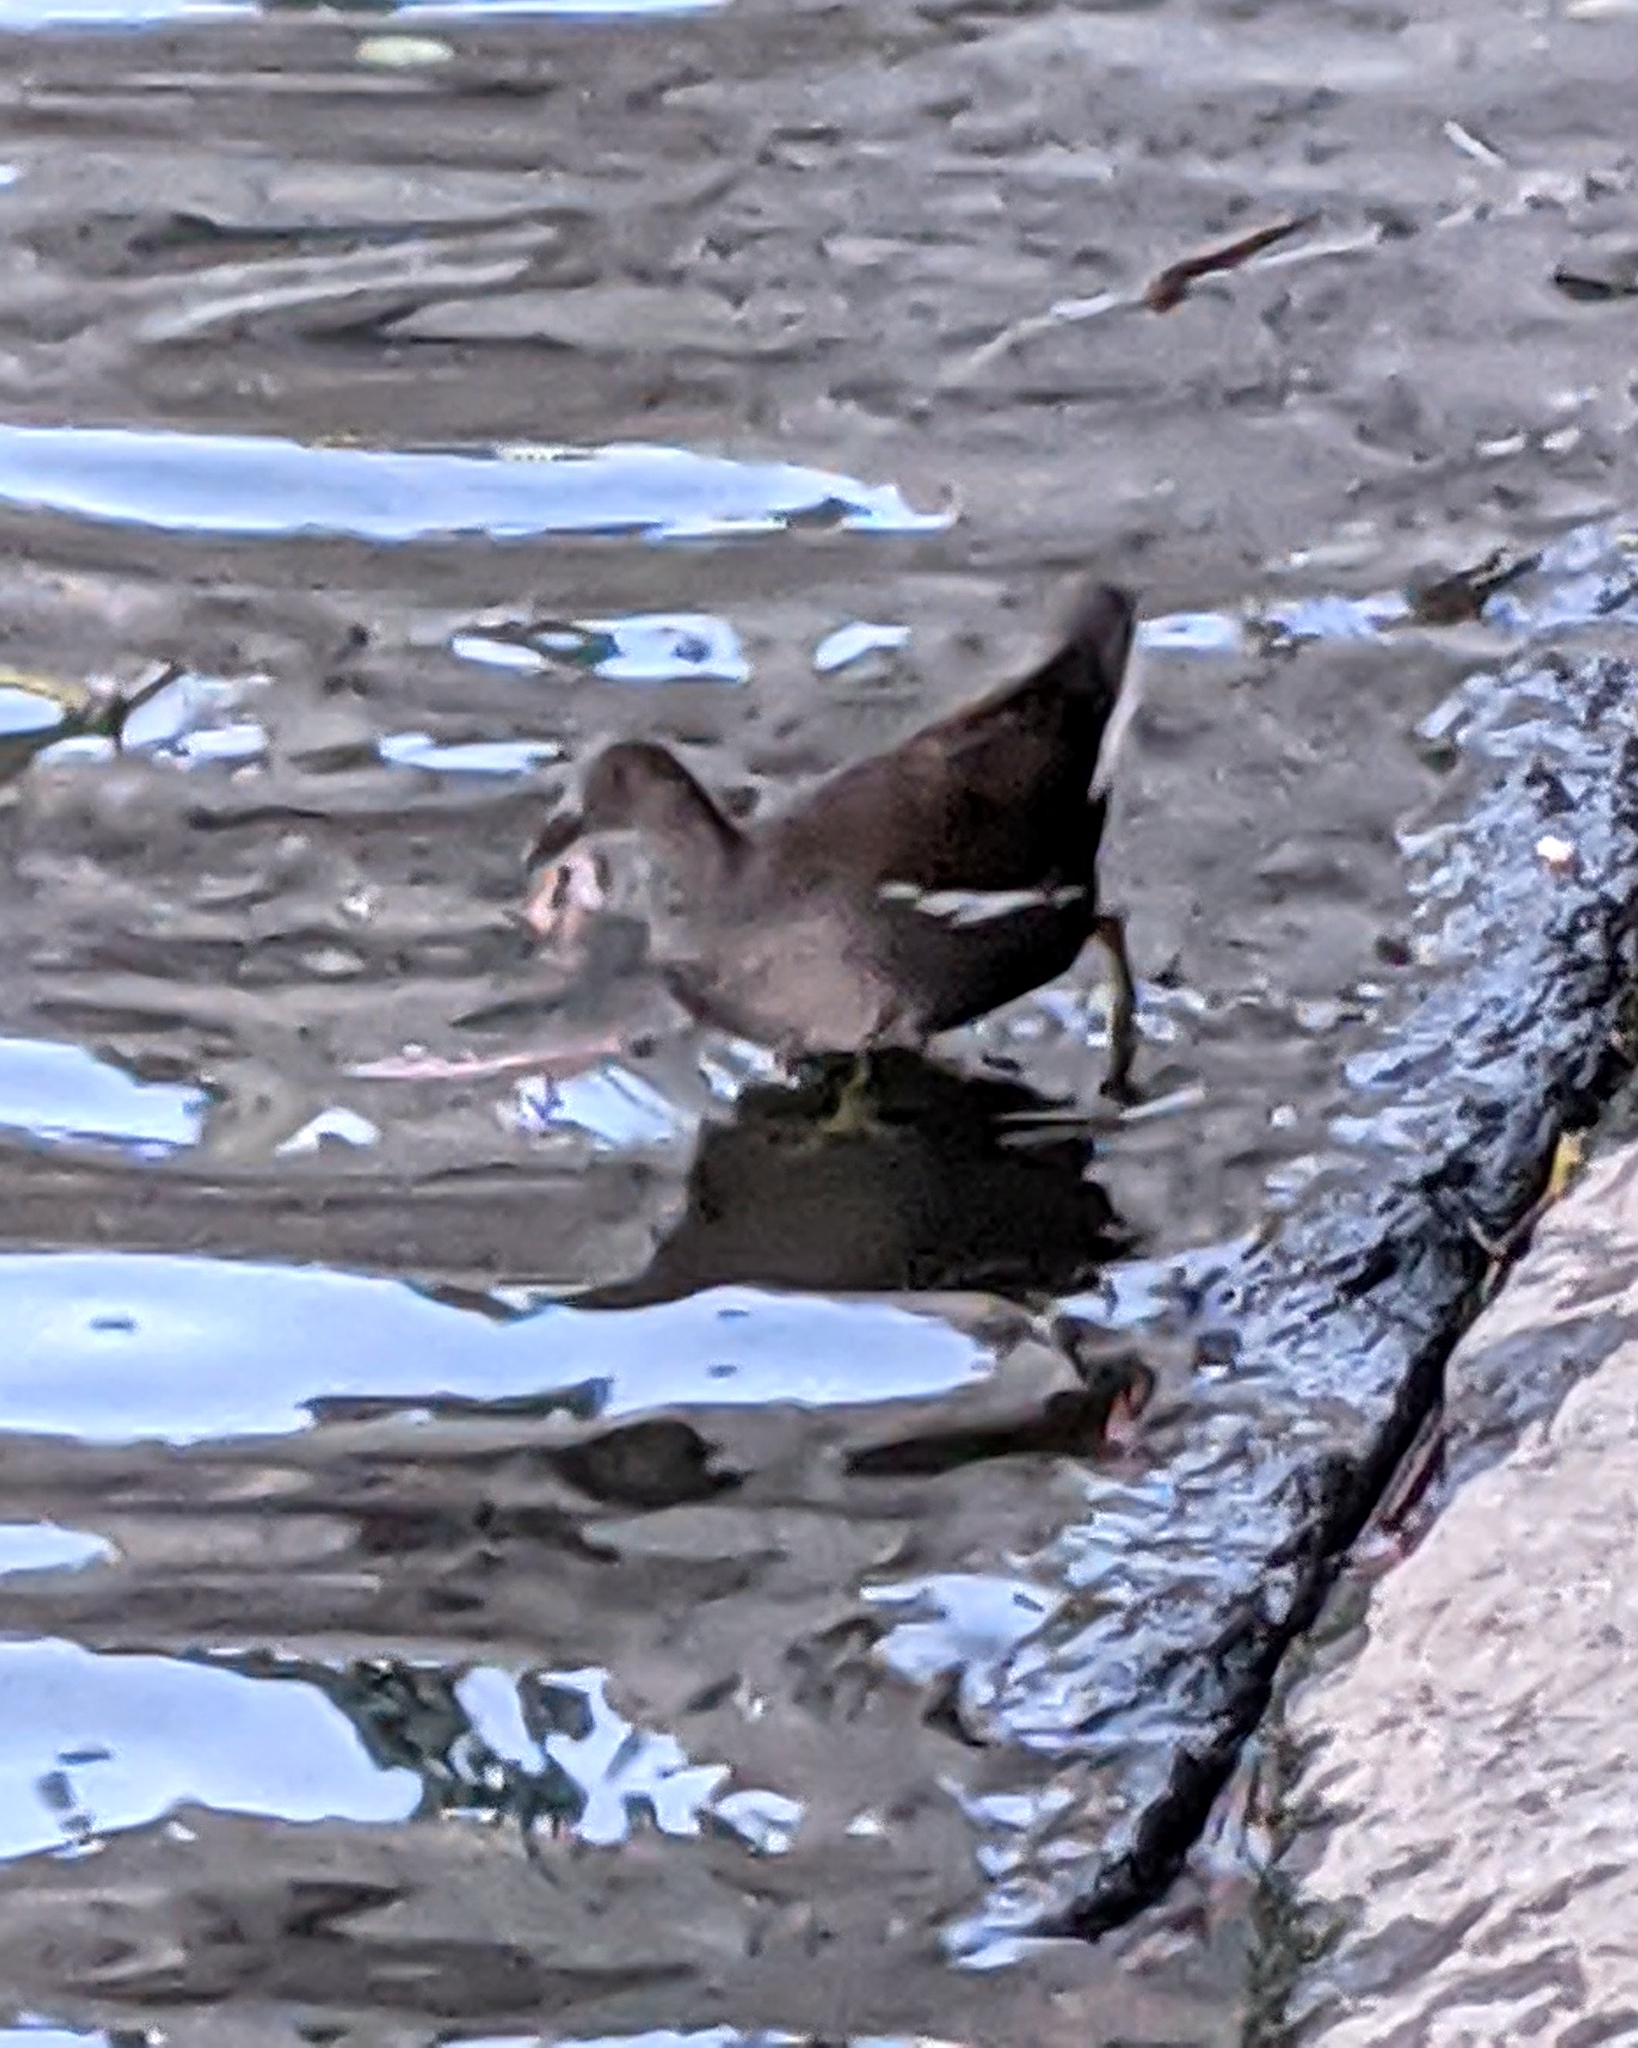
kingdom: Animalia
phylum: Chordata
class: Aves
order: Gruiformes
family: Rallidae
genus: Gallinula
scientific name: Gallinula chloropus
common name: Common moorhen
